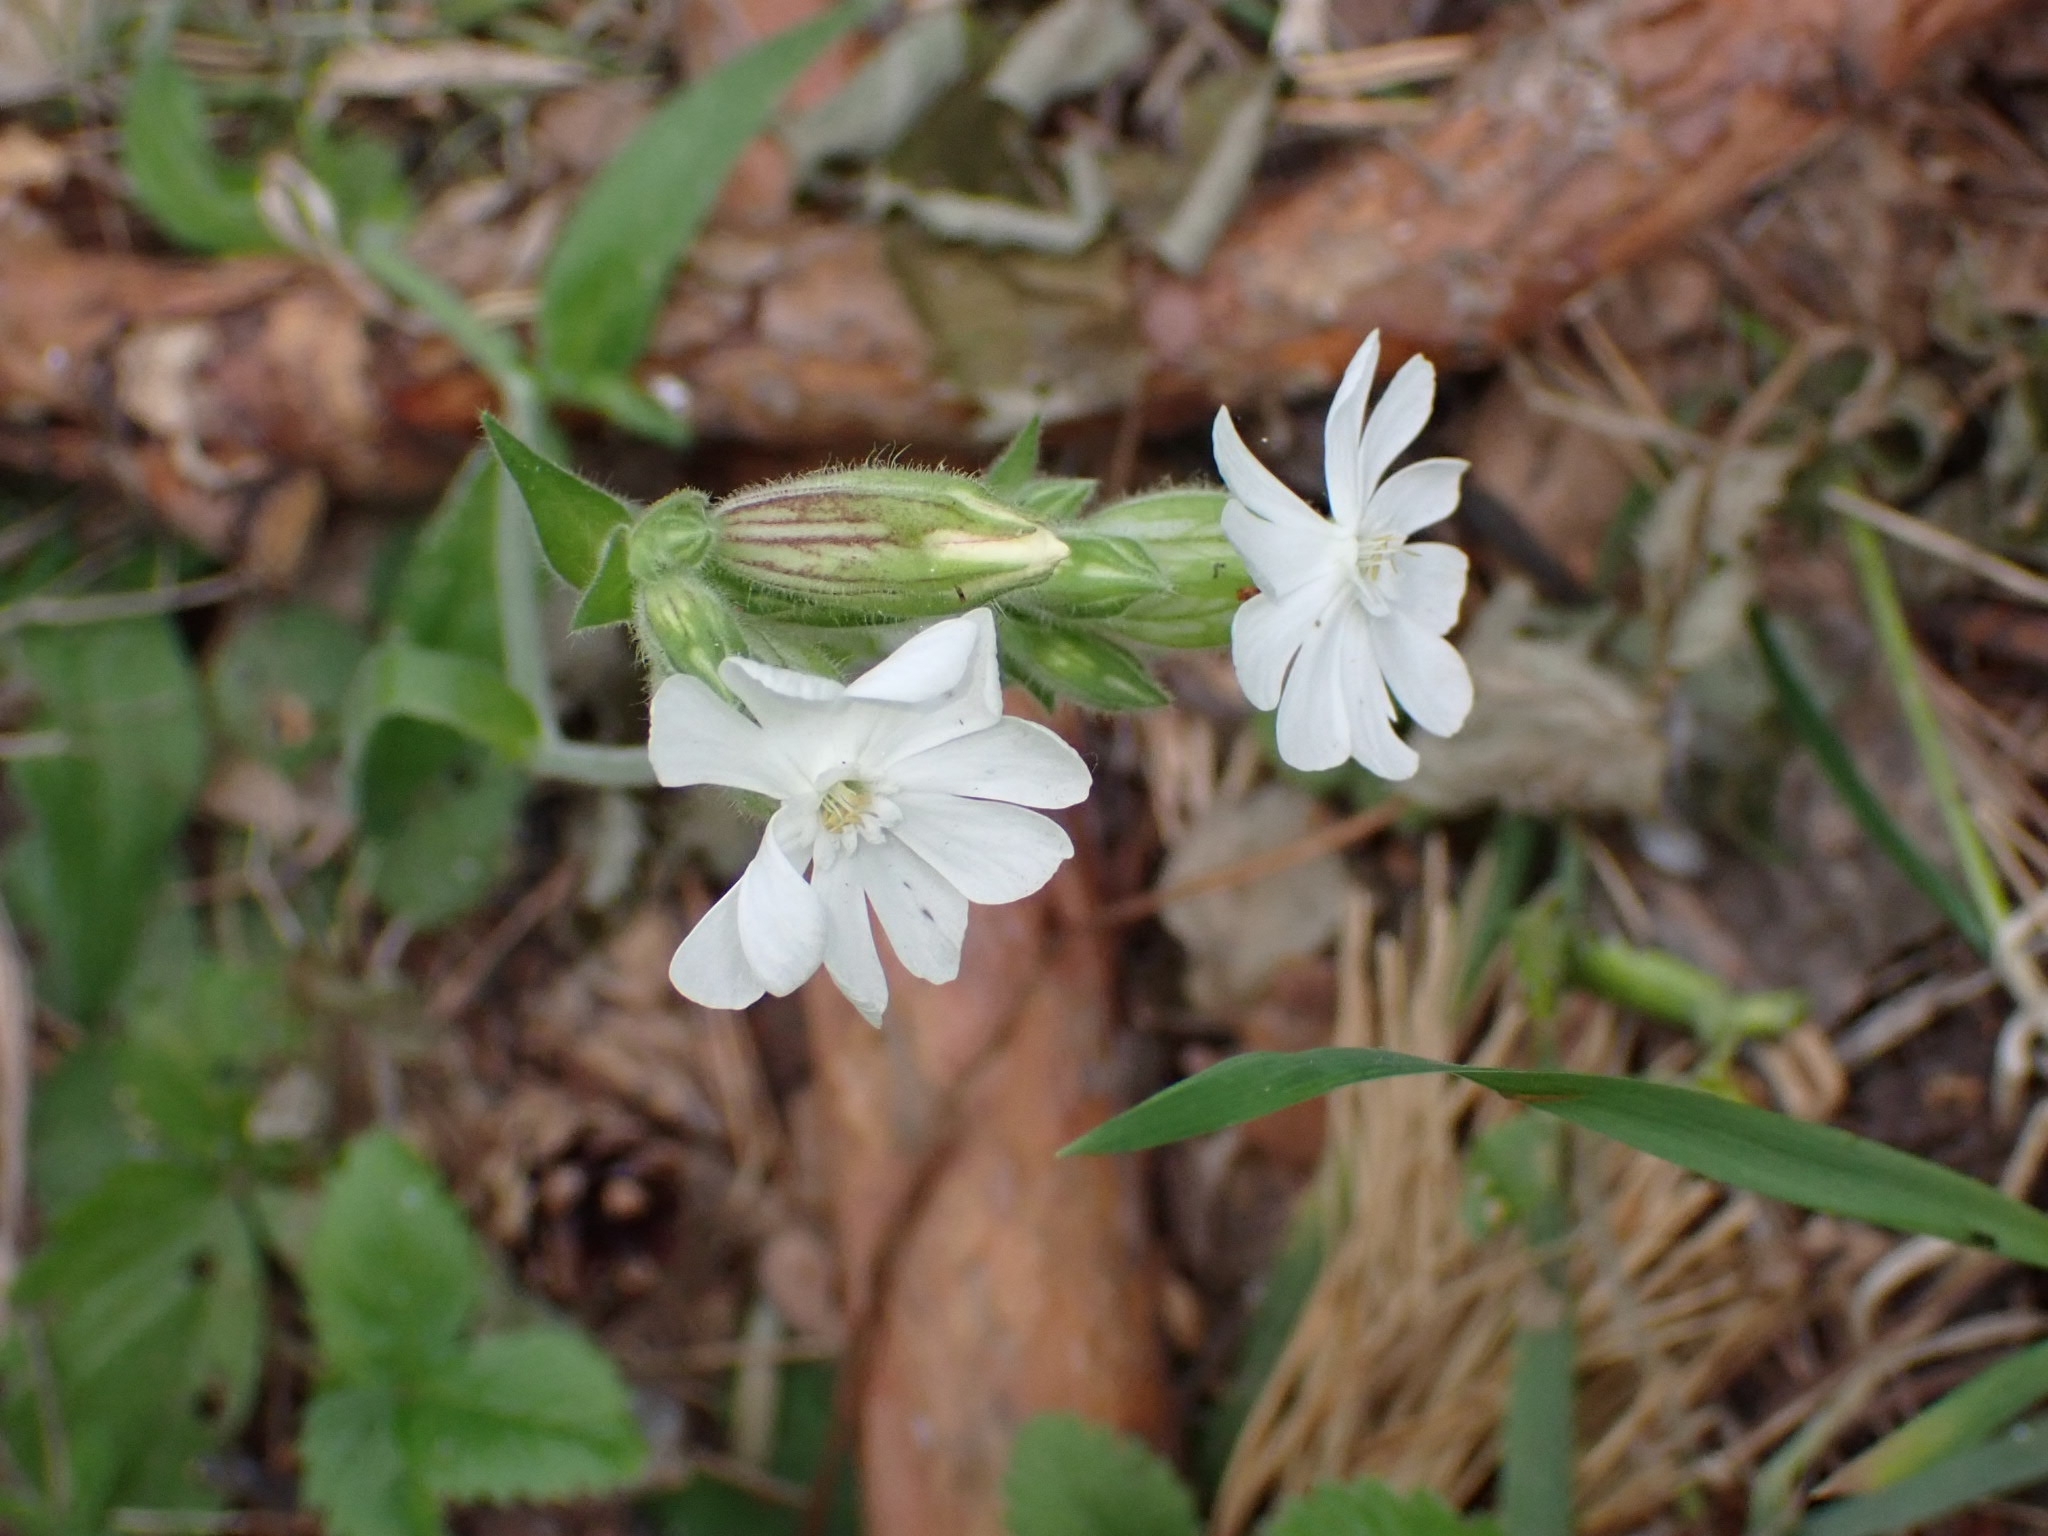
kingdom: Plantae
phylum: Tracheophyta
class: Magnoliopsida
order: Caryophyllales
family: Caryophyllaceae
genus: Silene
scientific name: Silene latifolia
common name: White campion
